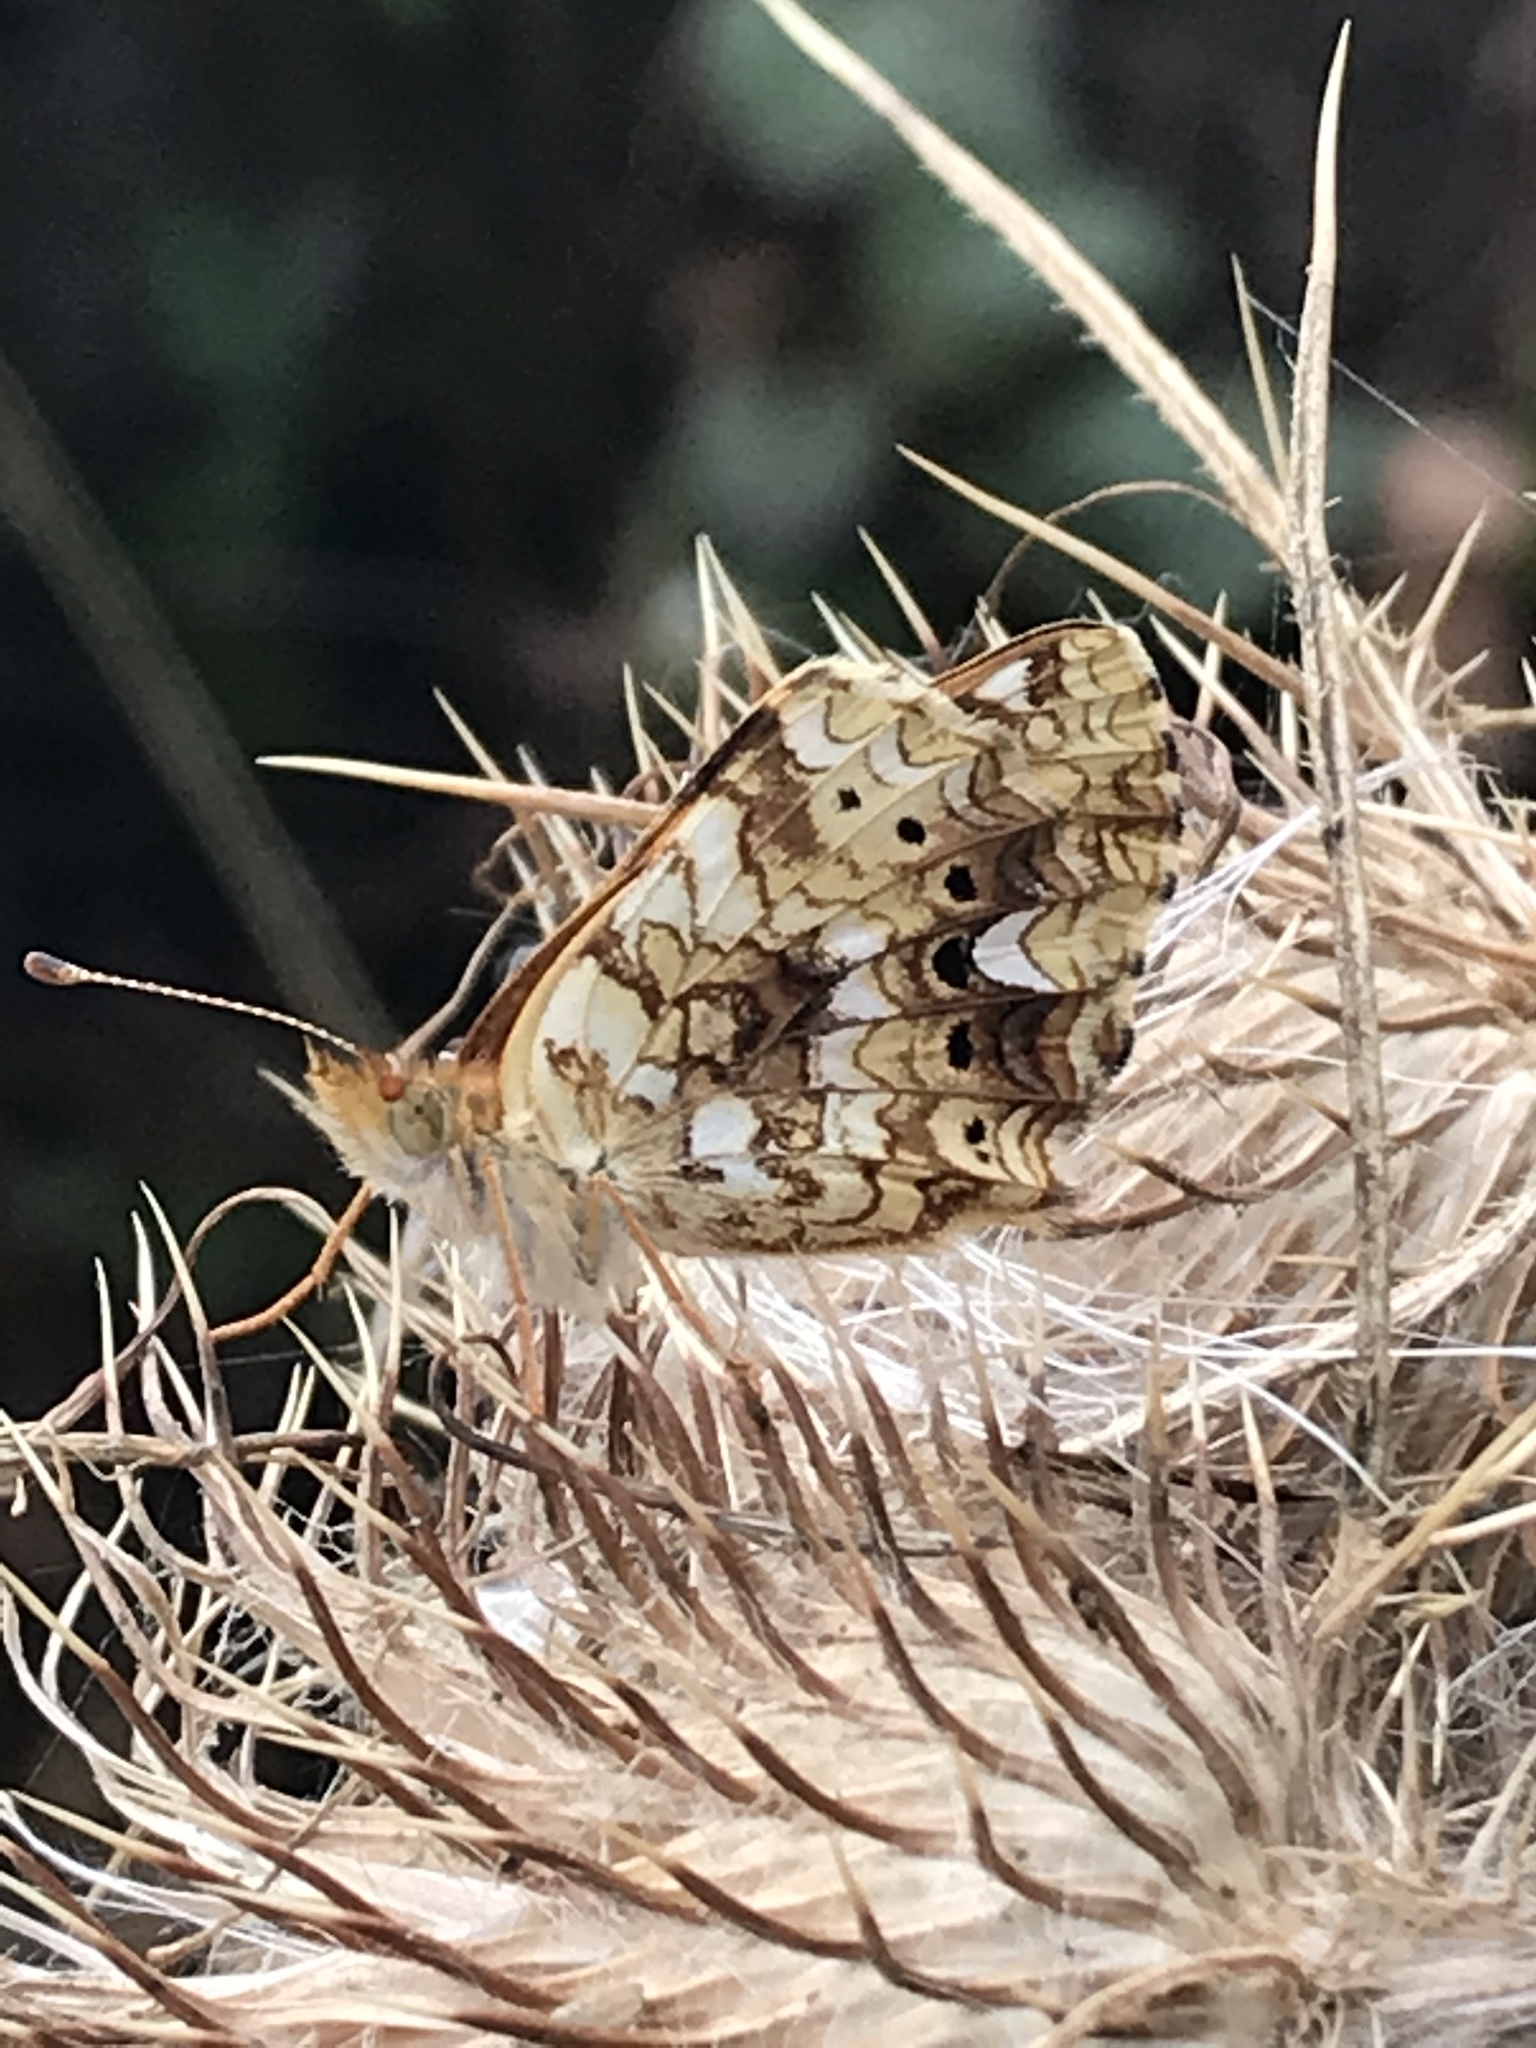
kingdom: Animalia
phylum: Arthropoda
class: Insecta
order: Lepidoptera
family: Nymphalidae
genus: Eresia
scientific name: Eresia aveyrona
